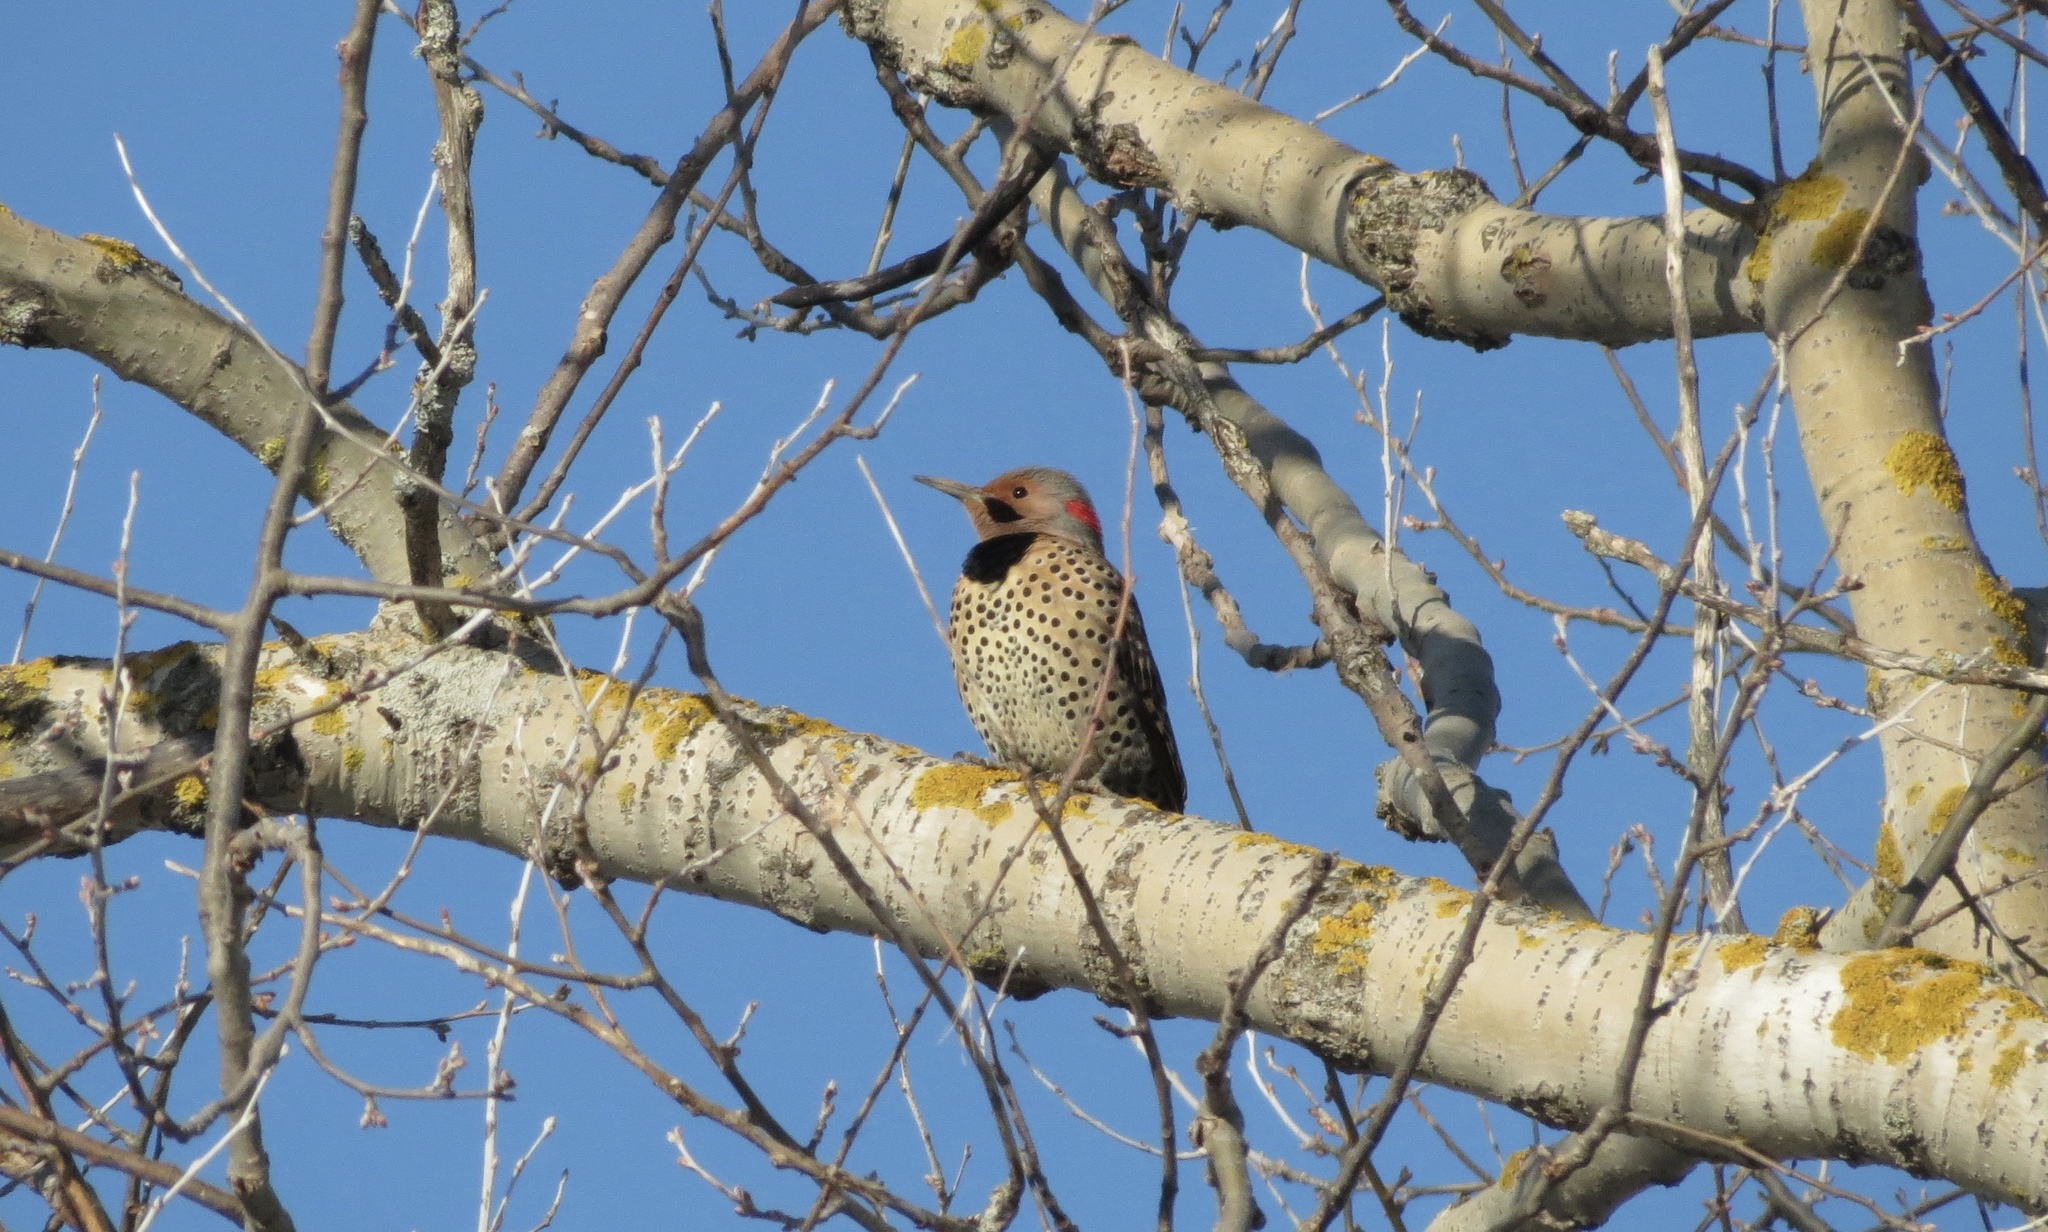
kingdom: Animalia
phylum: Chordata
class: Aves
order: Piciformes
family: Picidae
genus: Colaptes
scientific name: Colaptes auratus
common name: Northern flicker
